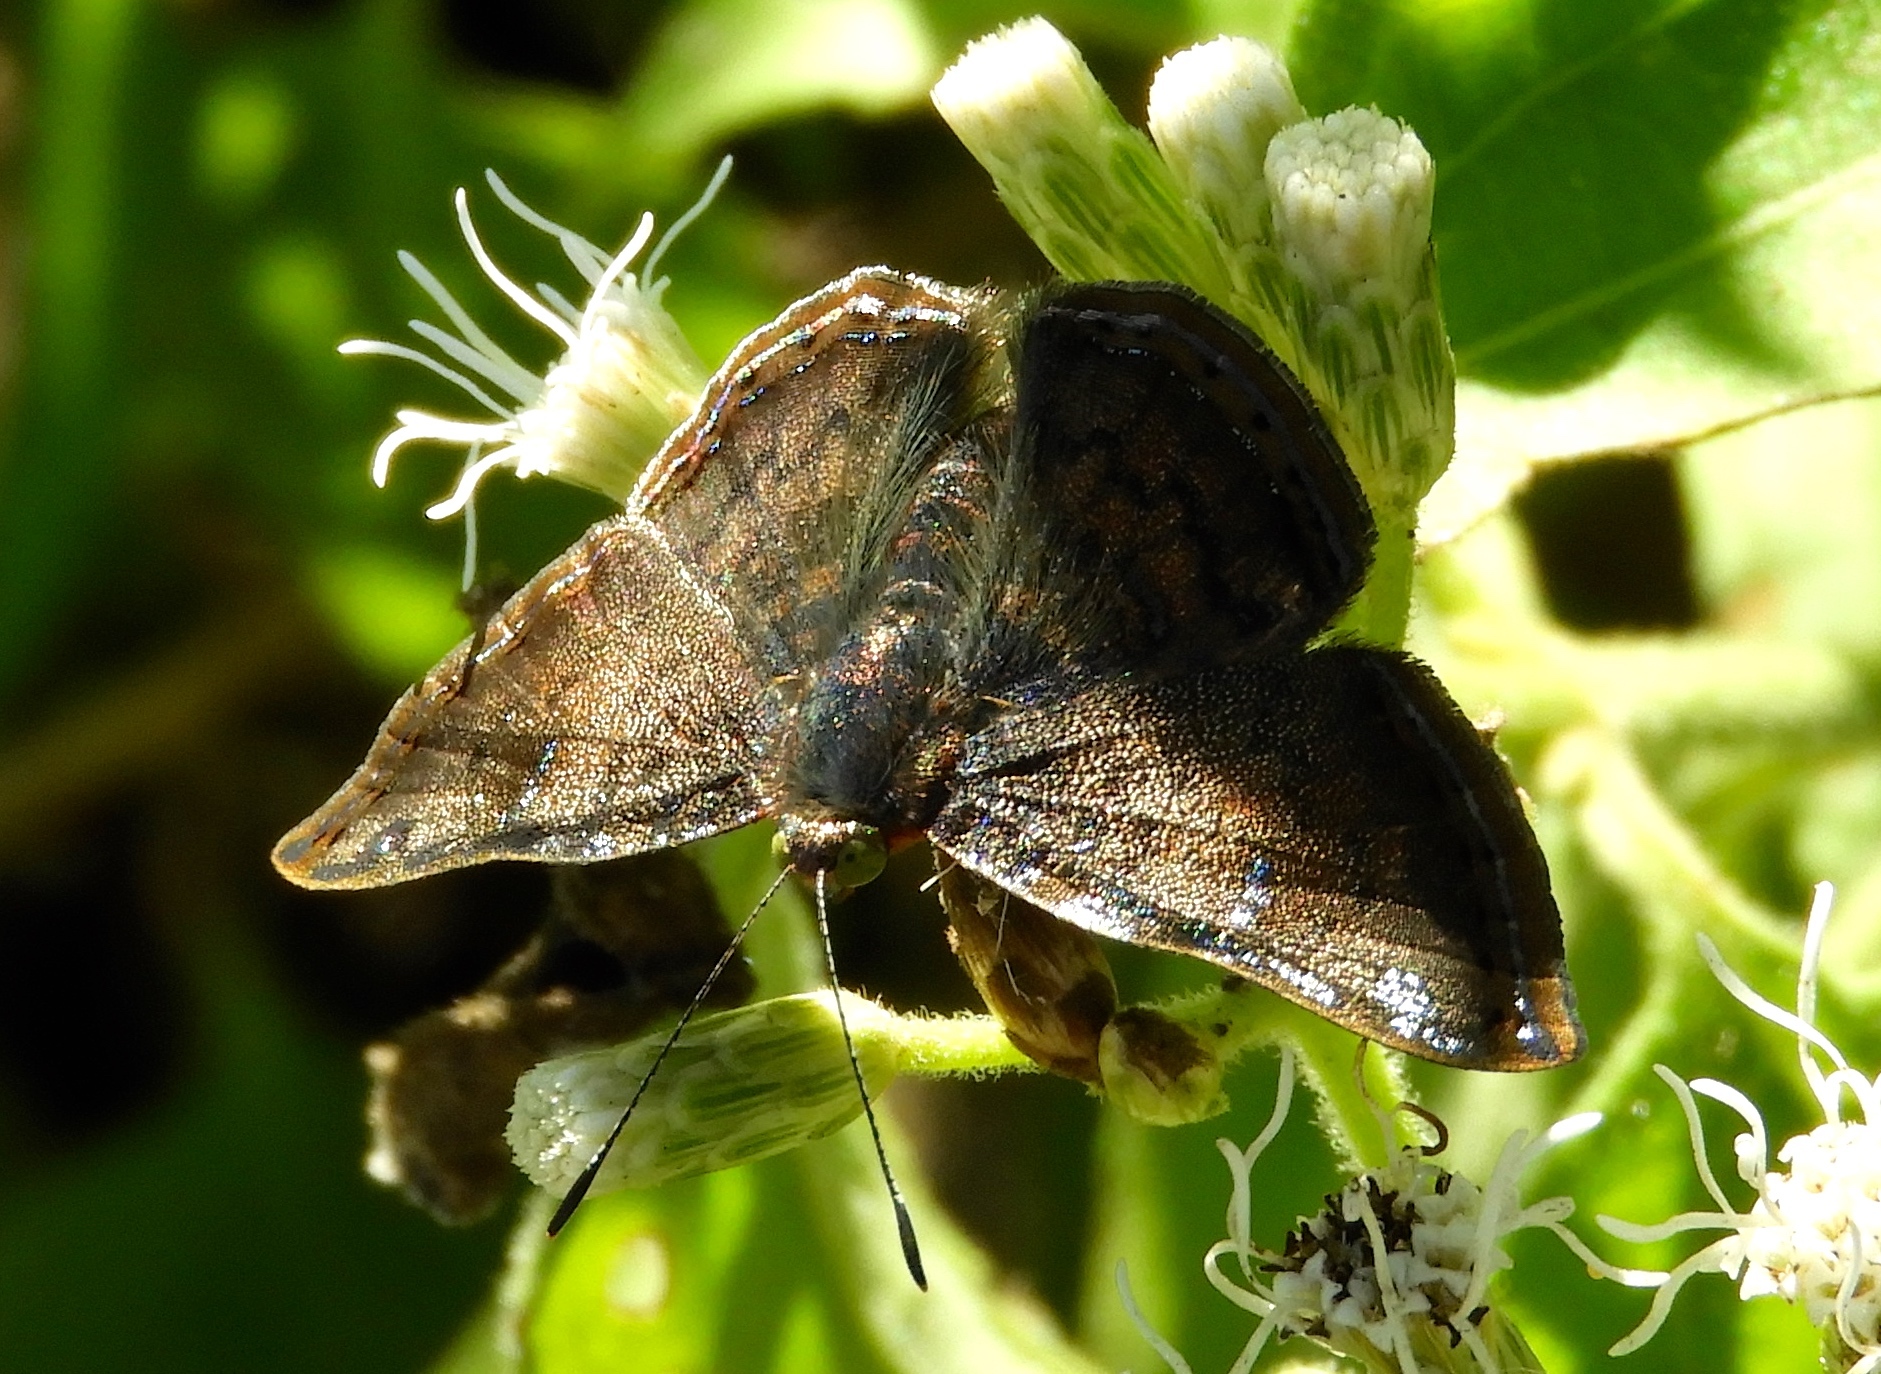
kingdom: Animalia
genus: Caria
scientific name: Caria ino
